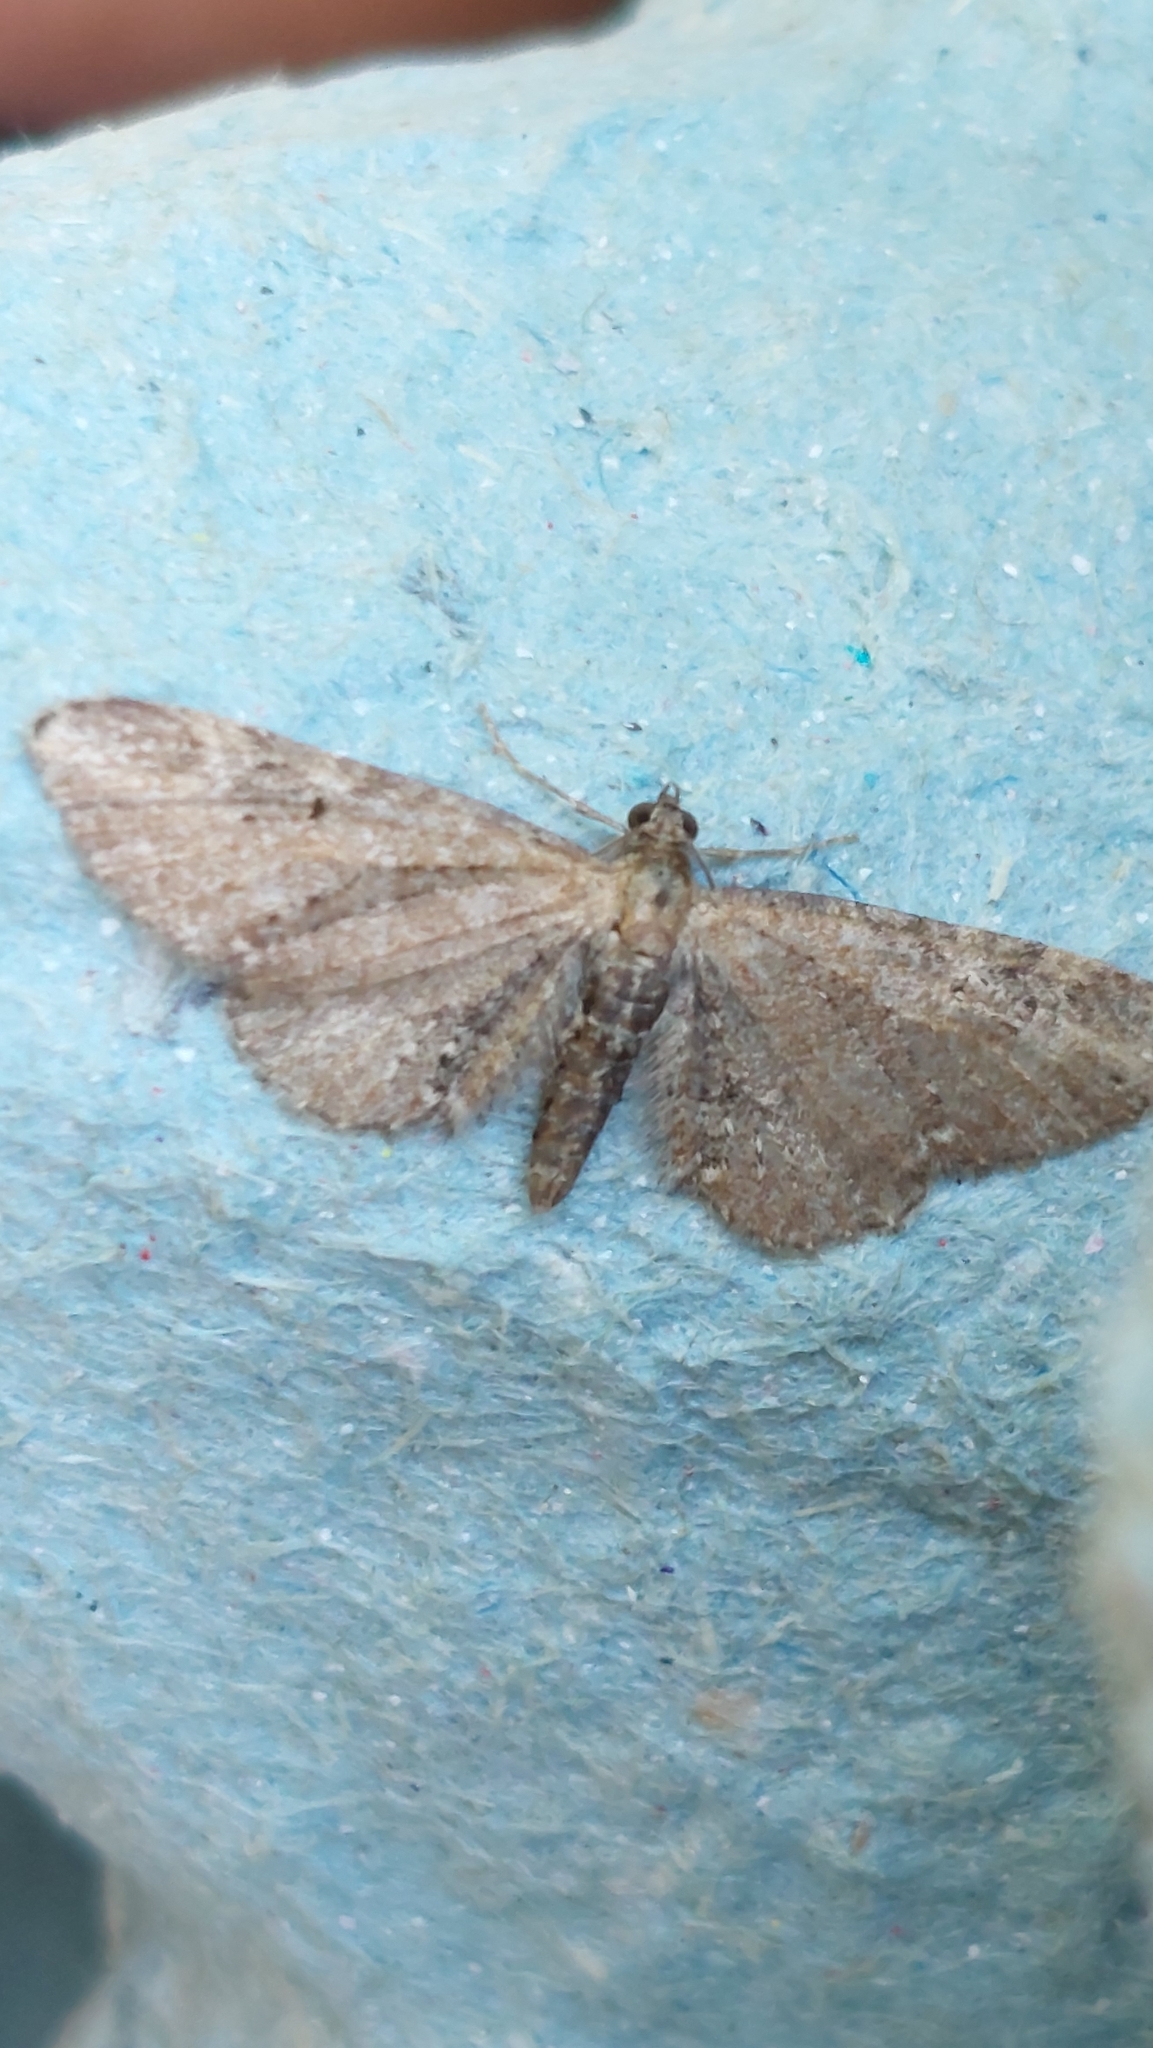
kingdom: Animalia
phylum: Arthropoda
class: Insecta
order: Lepidoptera
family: Geometridae
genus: Eupithecia
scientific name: Eupithecia vulgata
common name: Common pug
